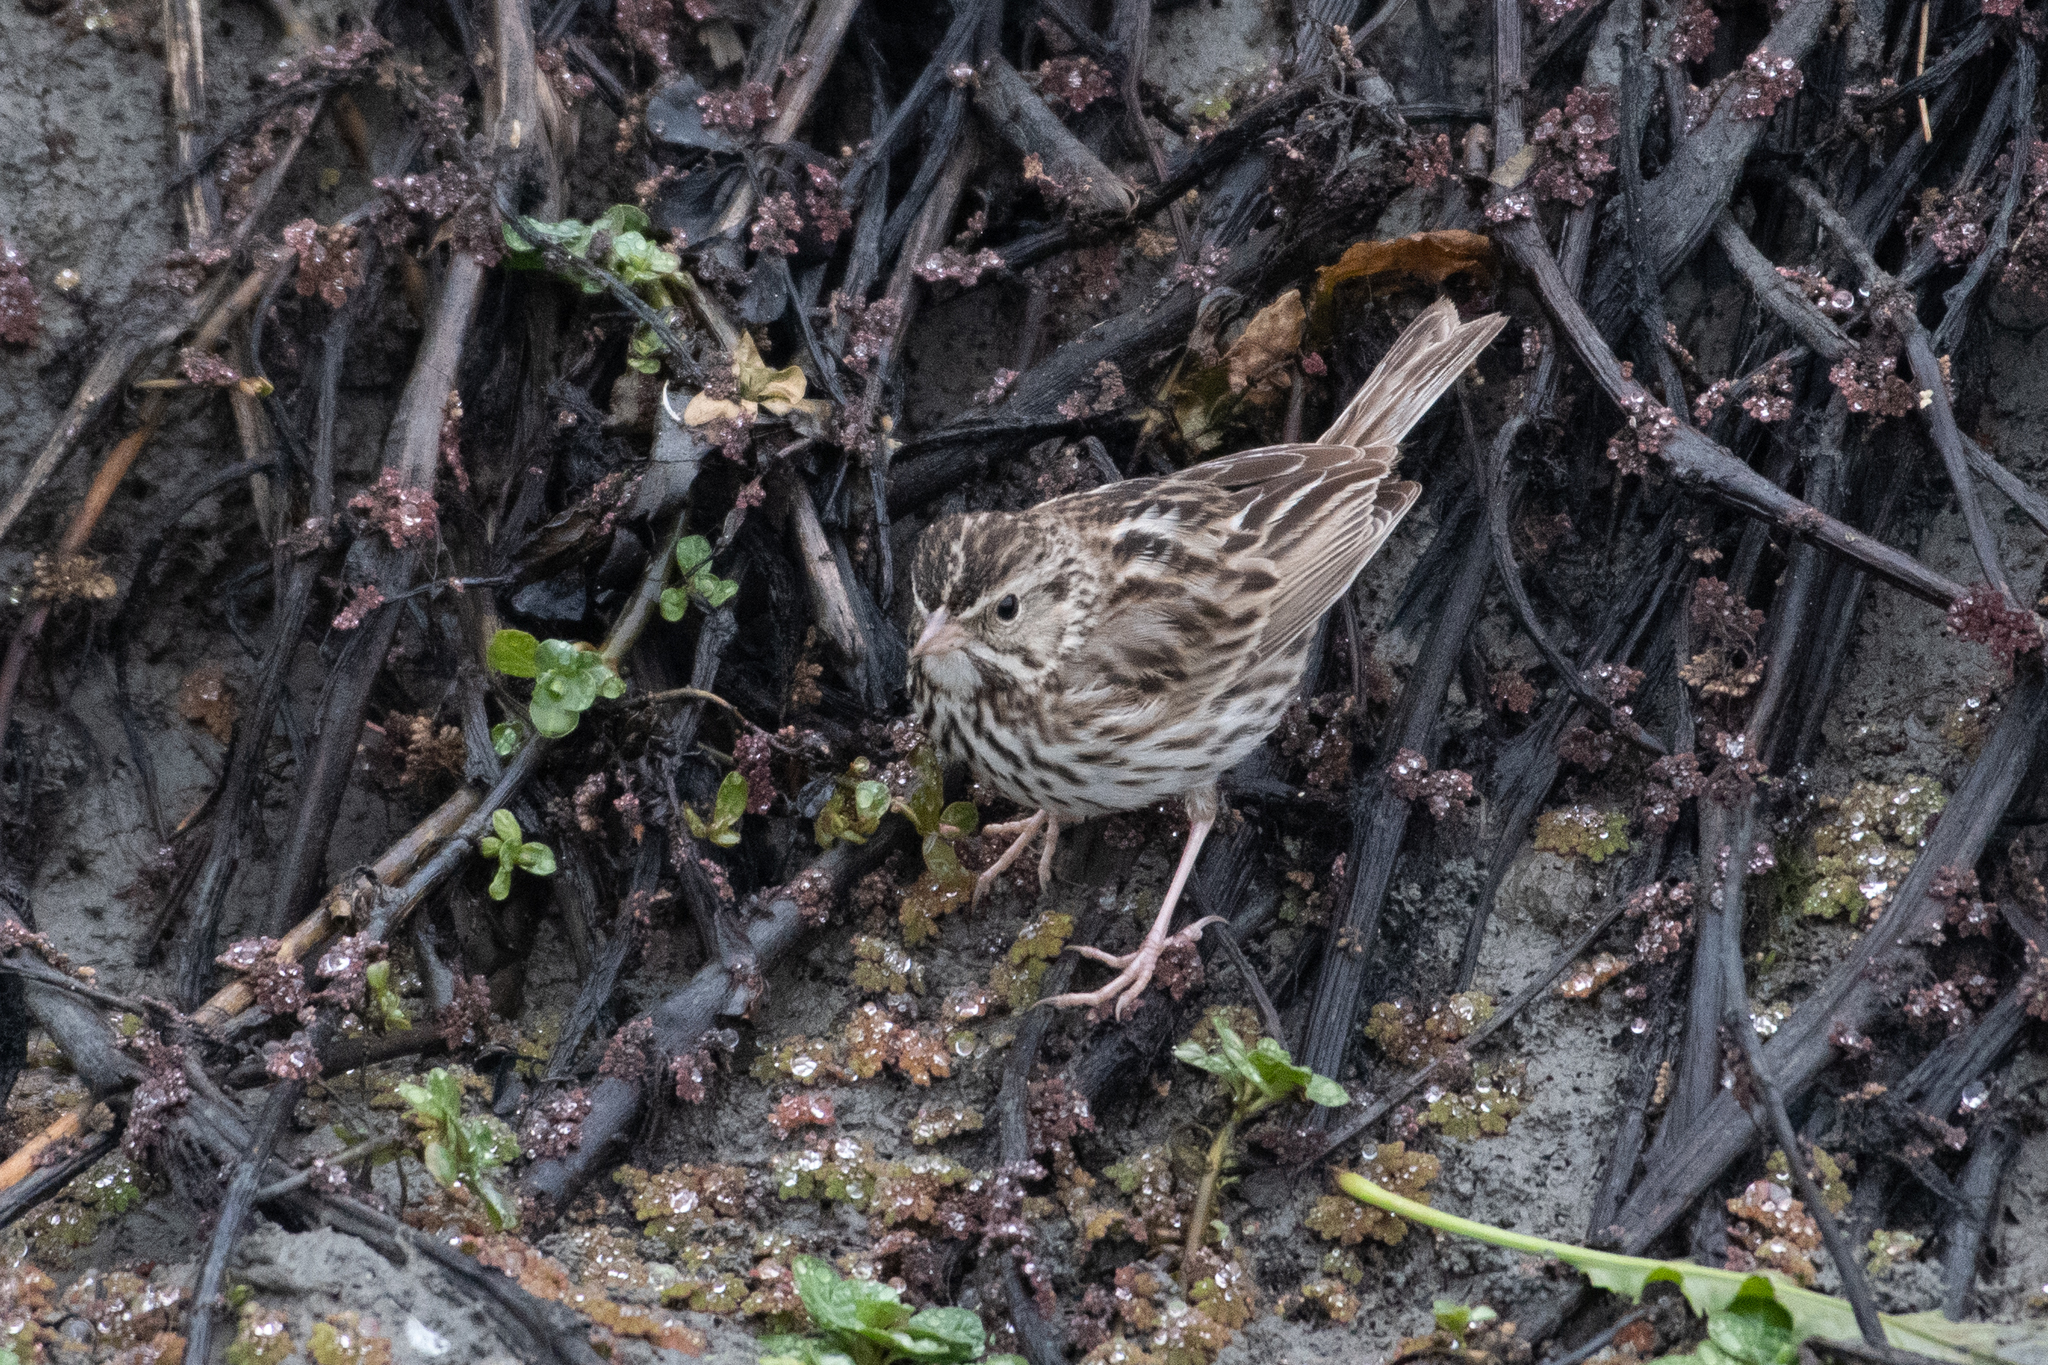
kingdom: Animalia
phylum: Chordata
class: Aves
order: Passeriformes
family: Passerellidae
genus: Passerculus
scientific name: Passerculus sandwichensis
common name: Savannah sparrow
